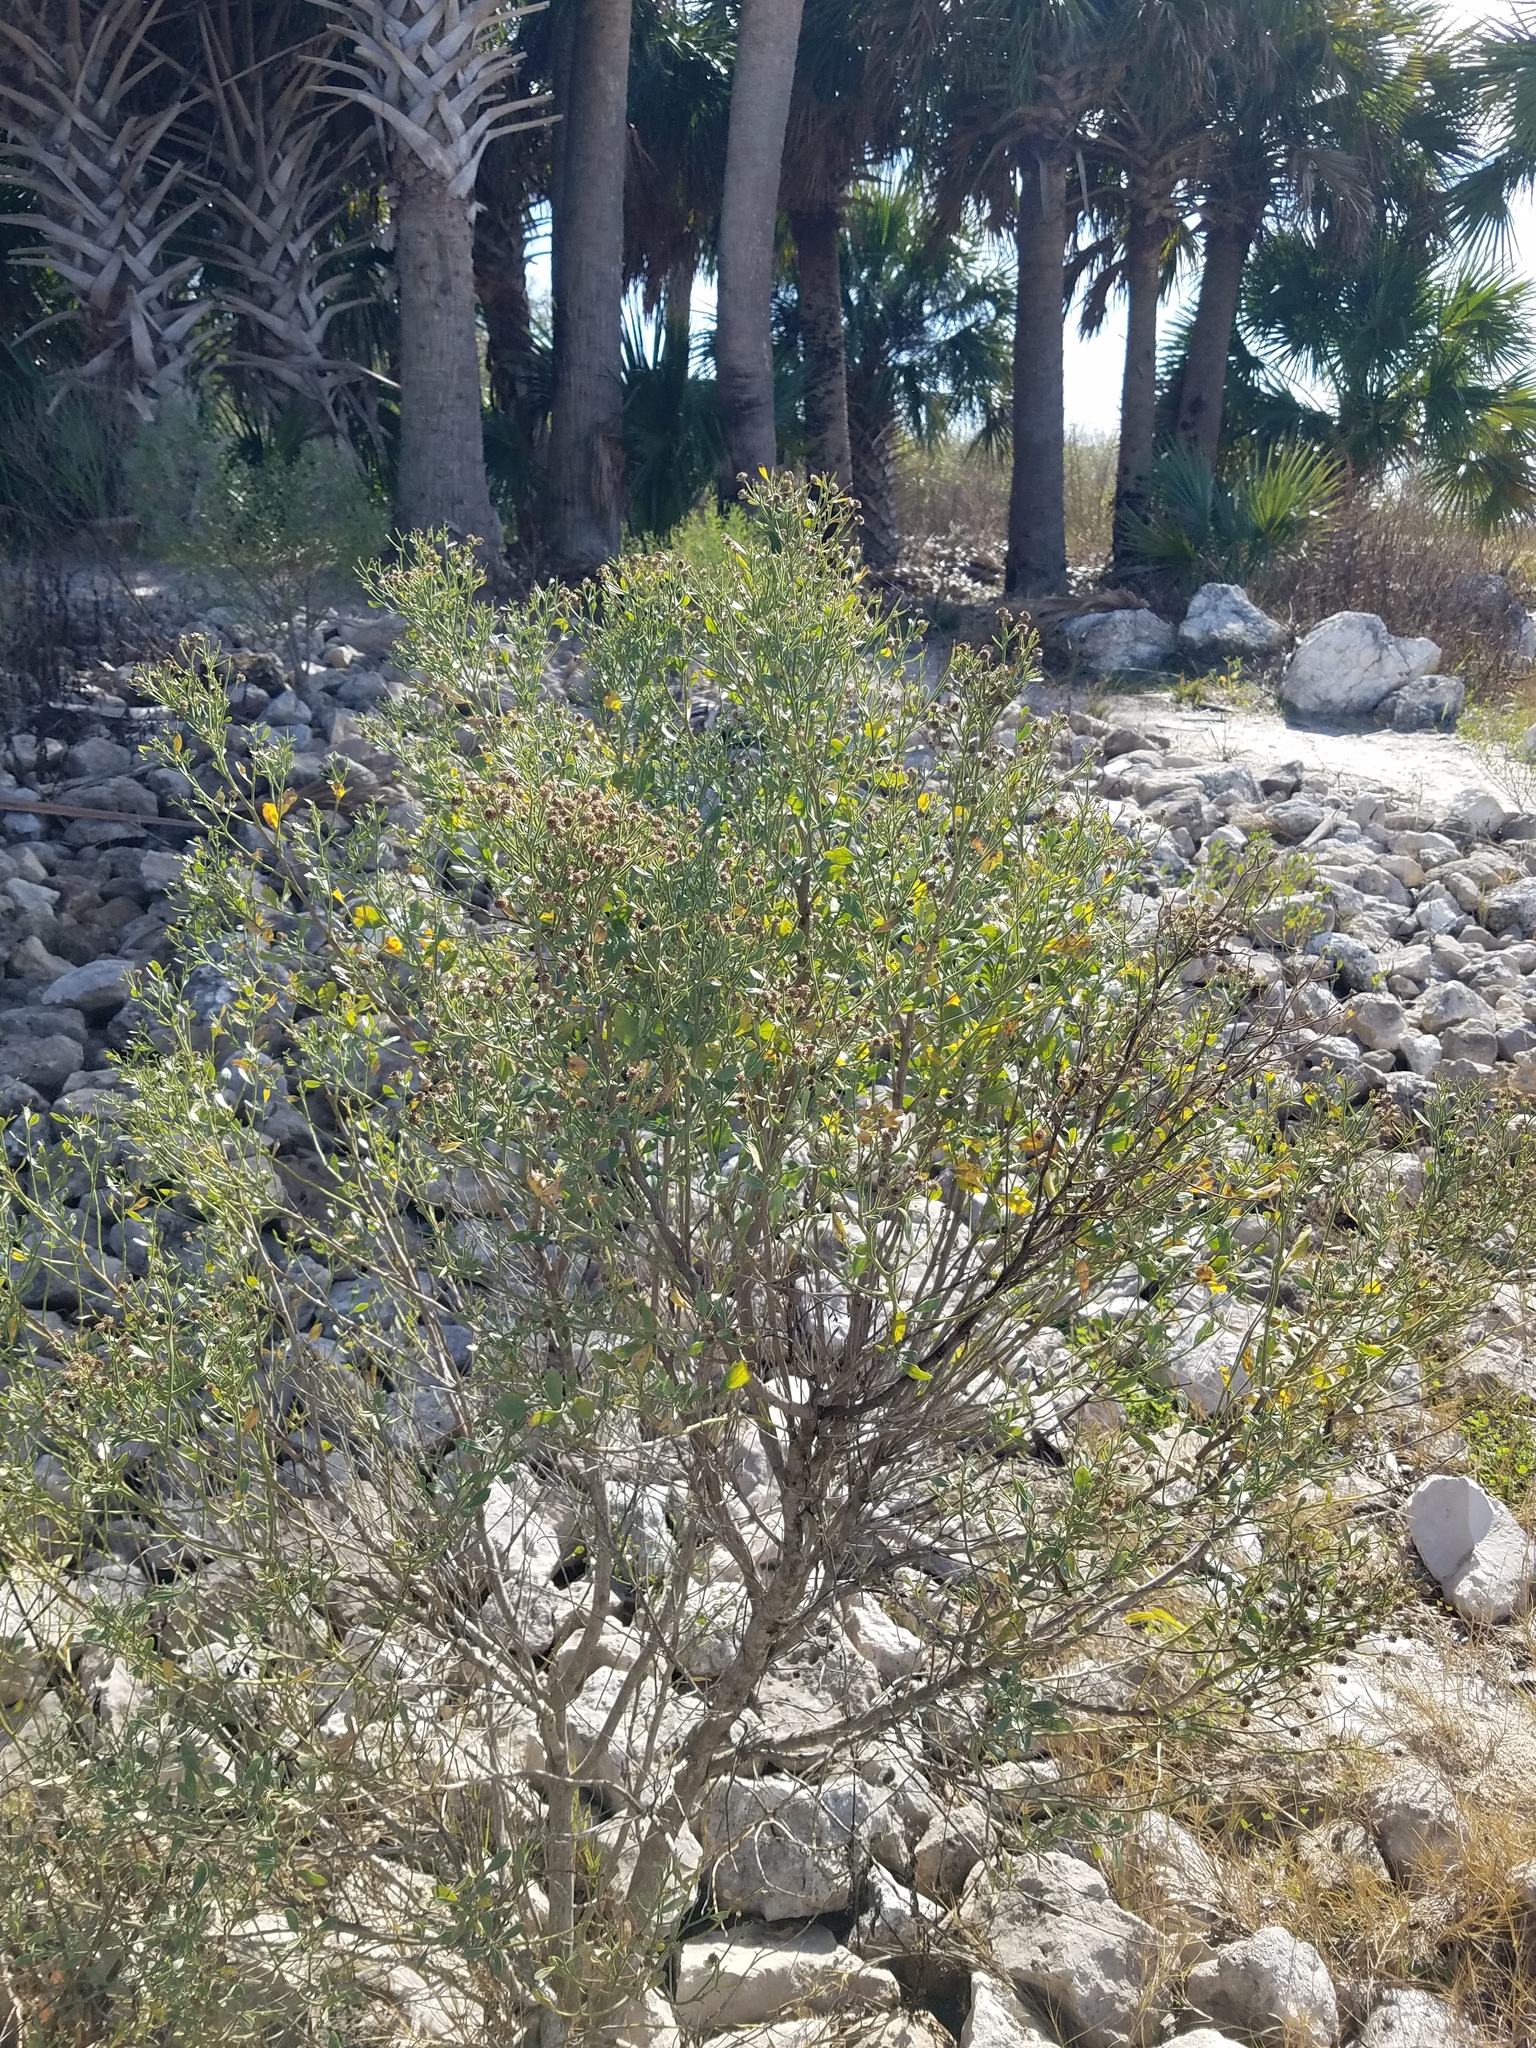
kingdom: Plantae
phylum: Tracheophyta
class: Magnoliopsida
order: Asterales
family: Asteraceae
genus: Baccharis
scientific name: Baccharis halimifolia
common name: Eastern baccharis
